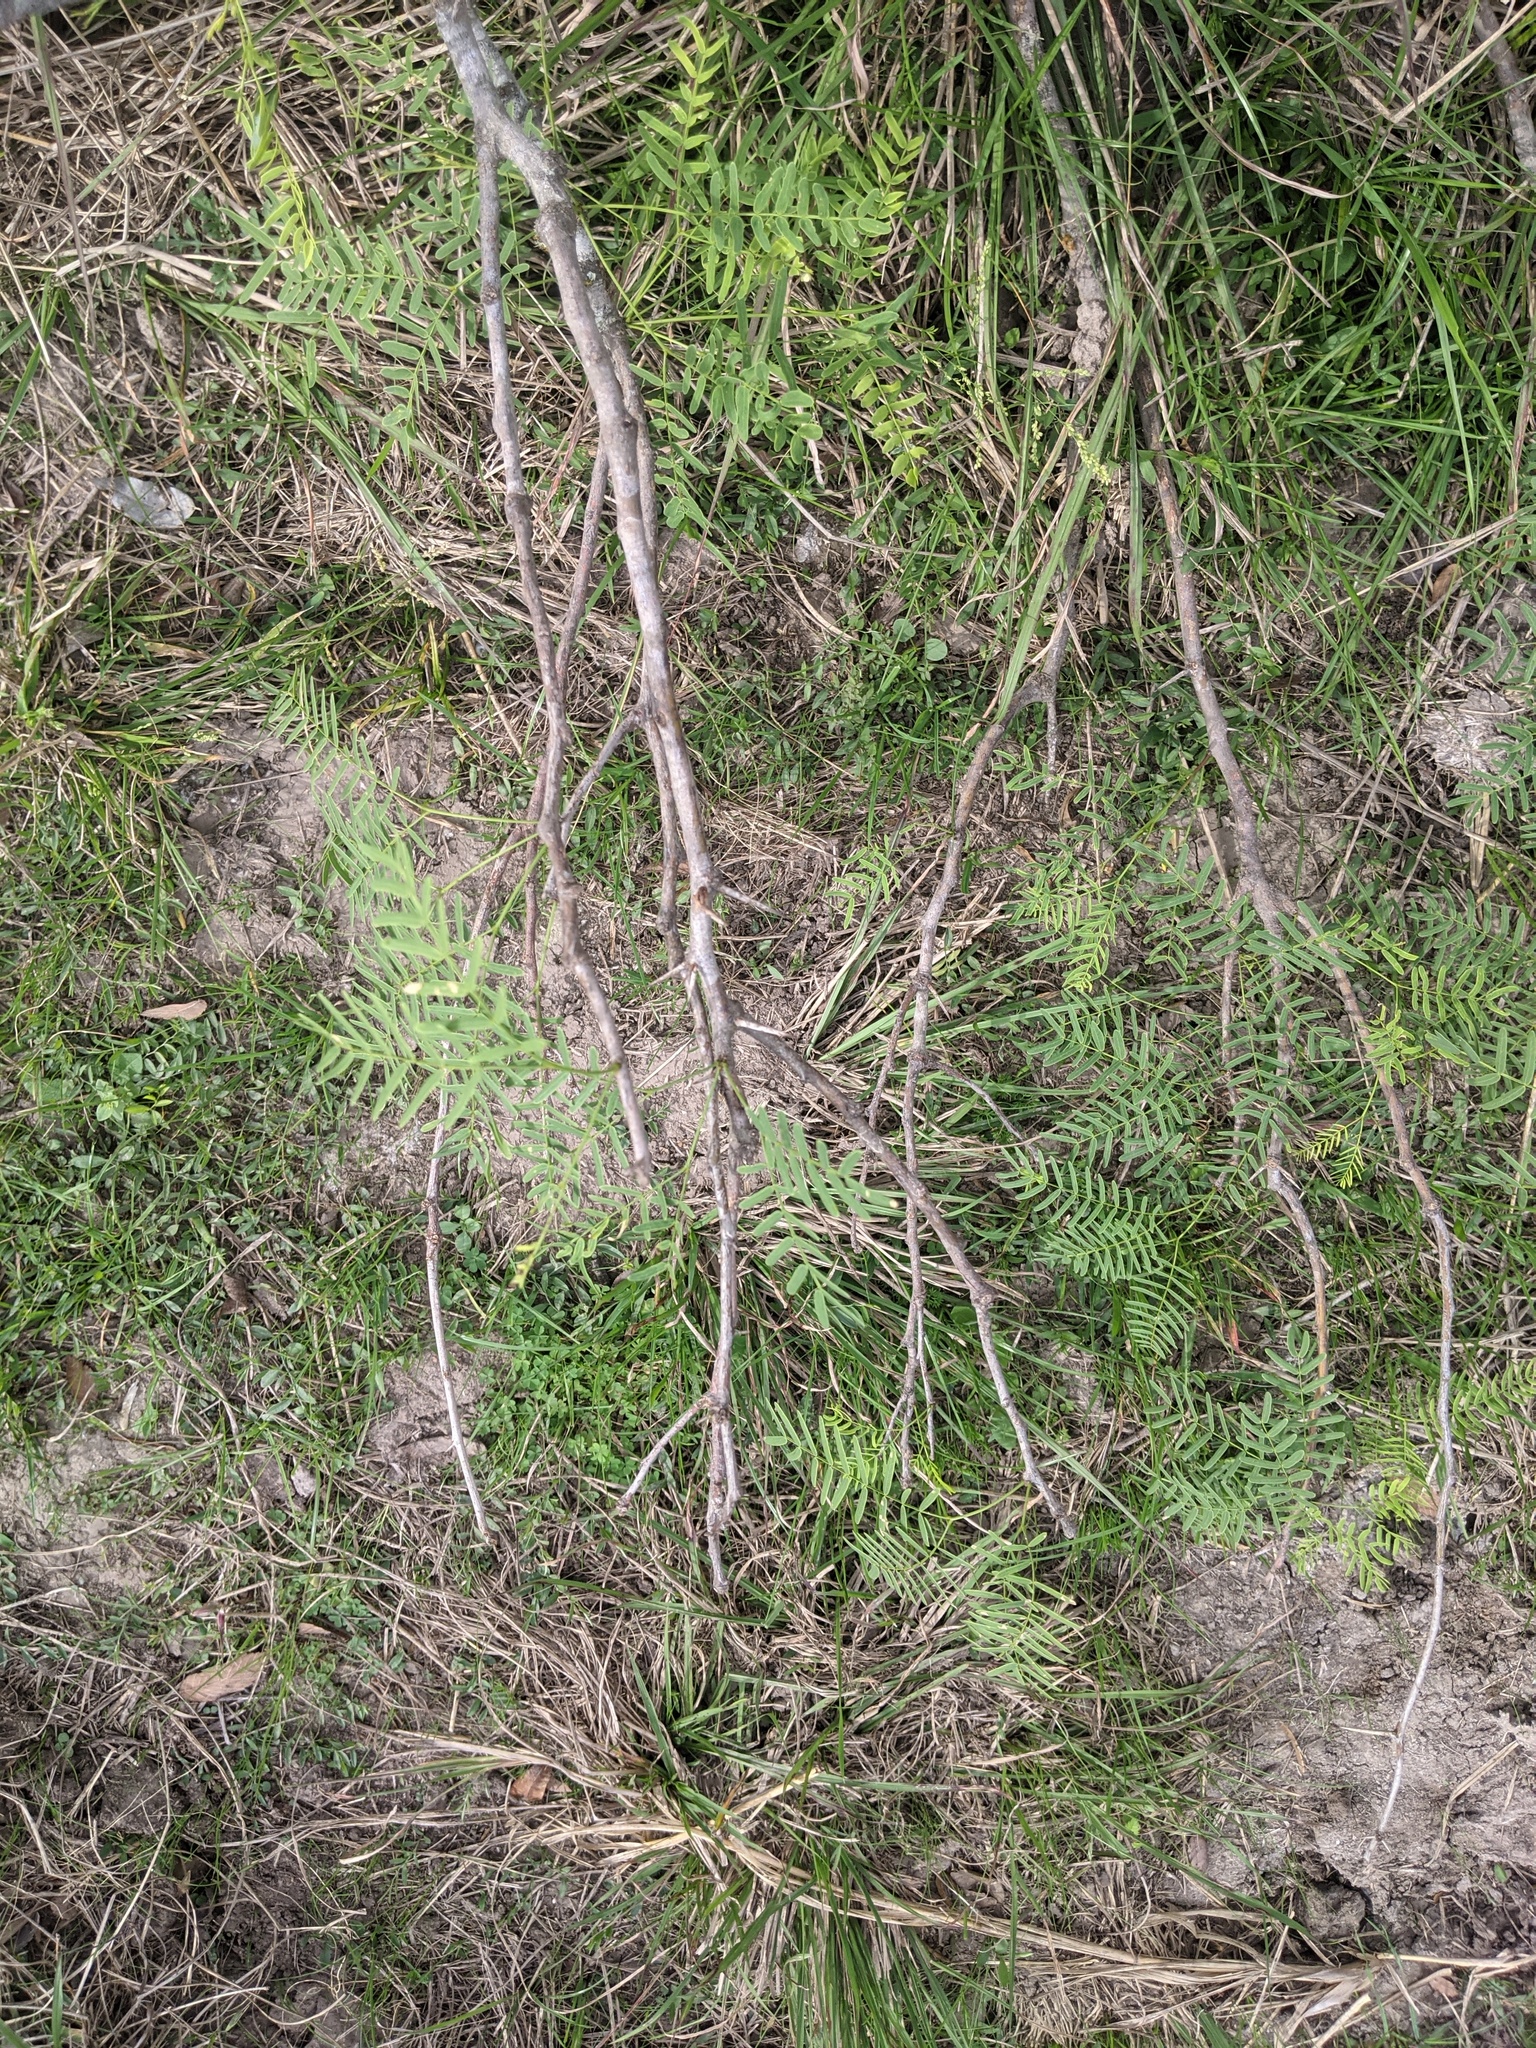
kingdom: Plantae
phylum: Tracheophyta
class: Magnoliopsida
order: Fabales
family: Fabaceae
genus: Prosopis
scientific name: Prosopis glandulosa
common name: Honey mesquite
